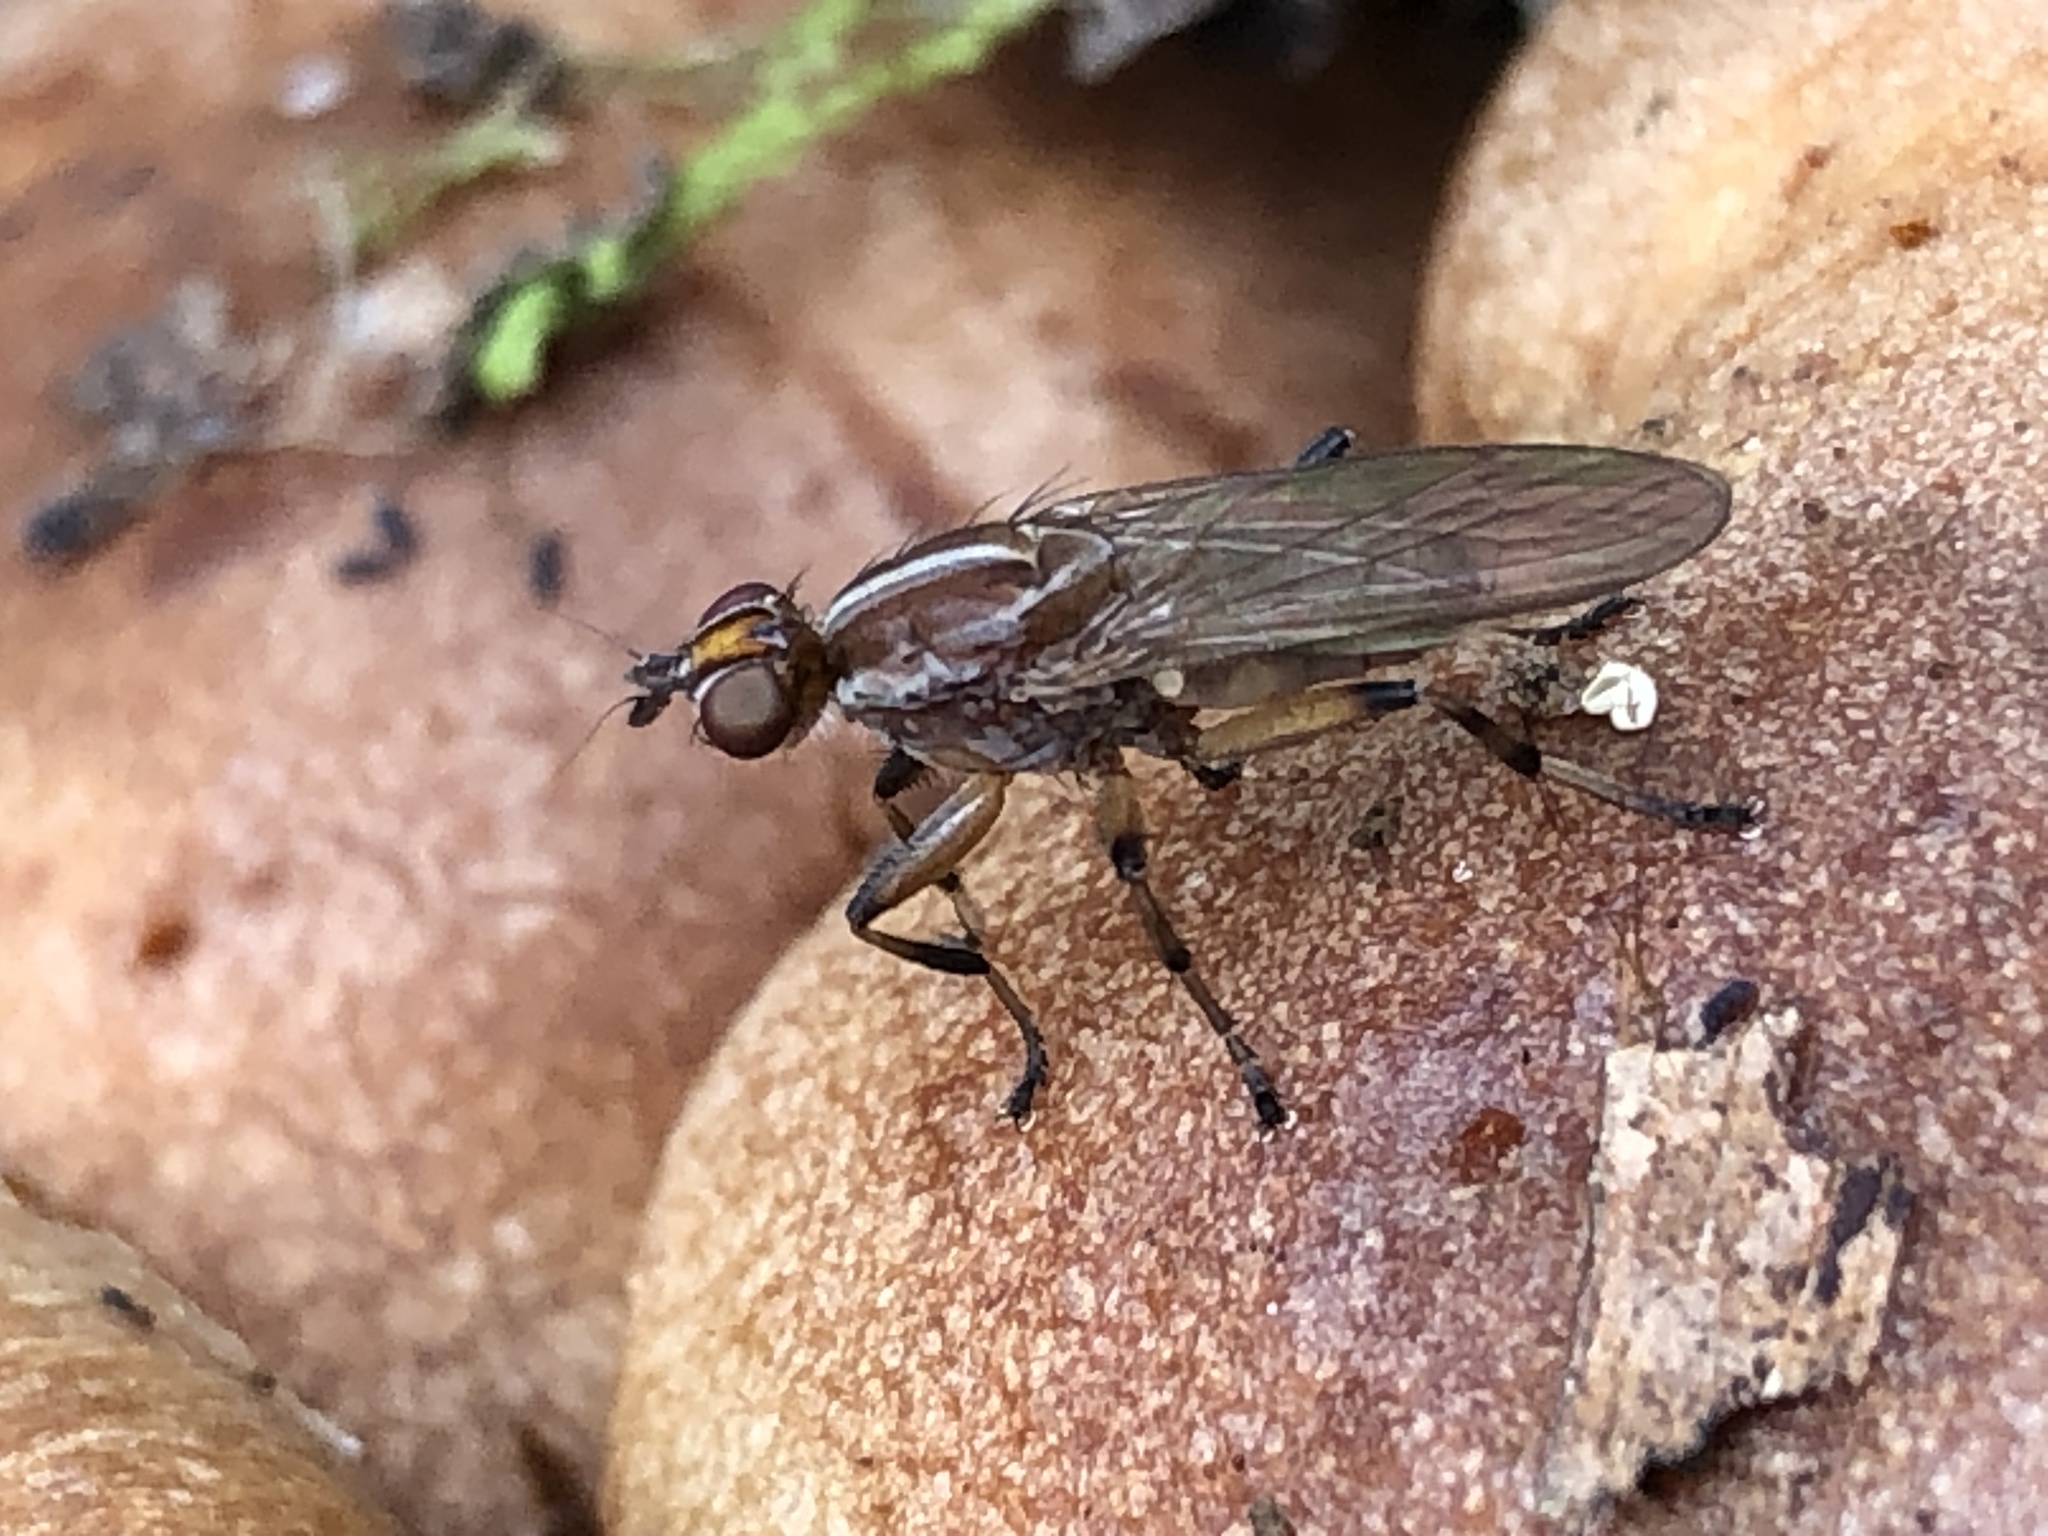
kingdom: Animalia
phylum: Arthropoda
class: Insecta
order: Diptera
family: Heleomyzidae
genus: Tapeigaster
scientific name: Tapeigaster paramonovi
